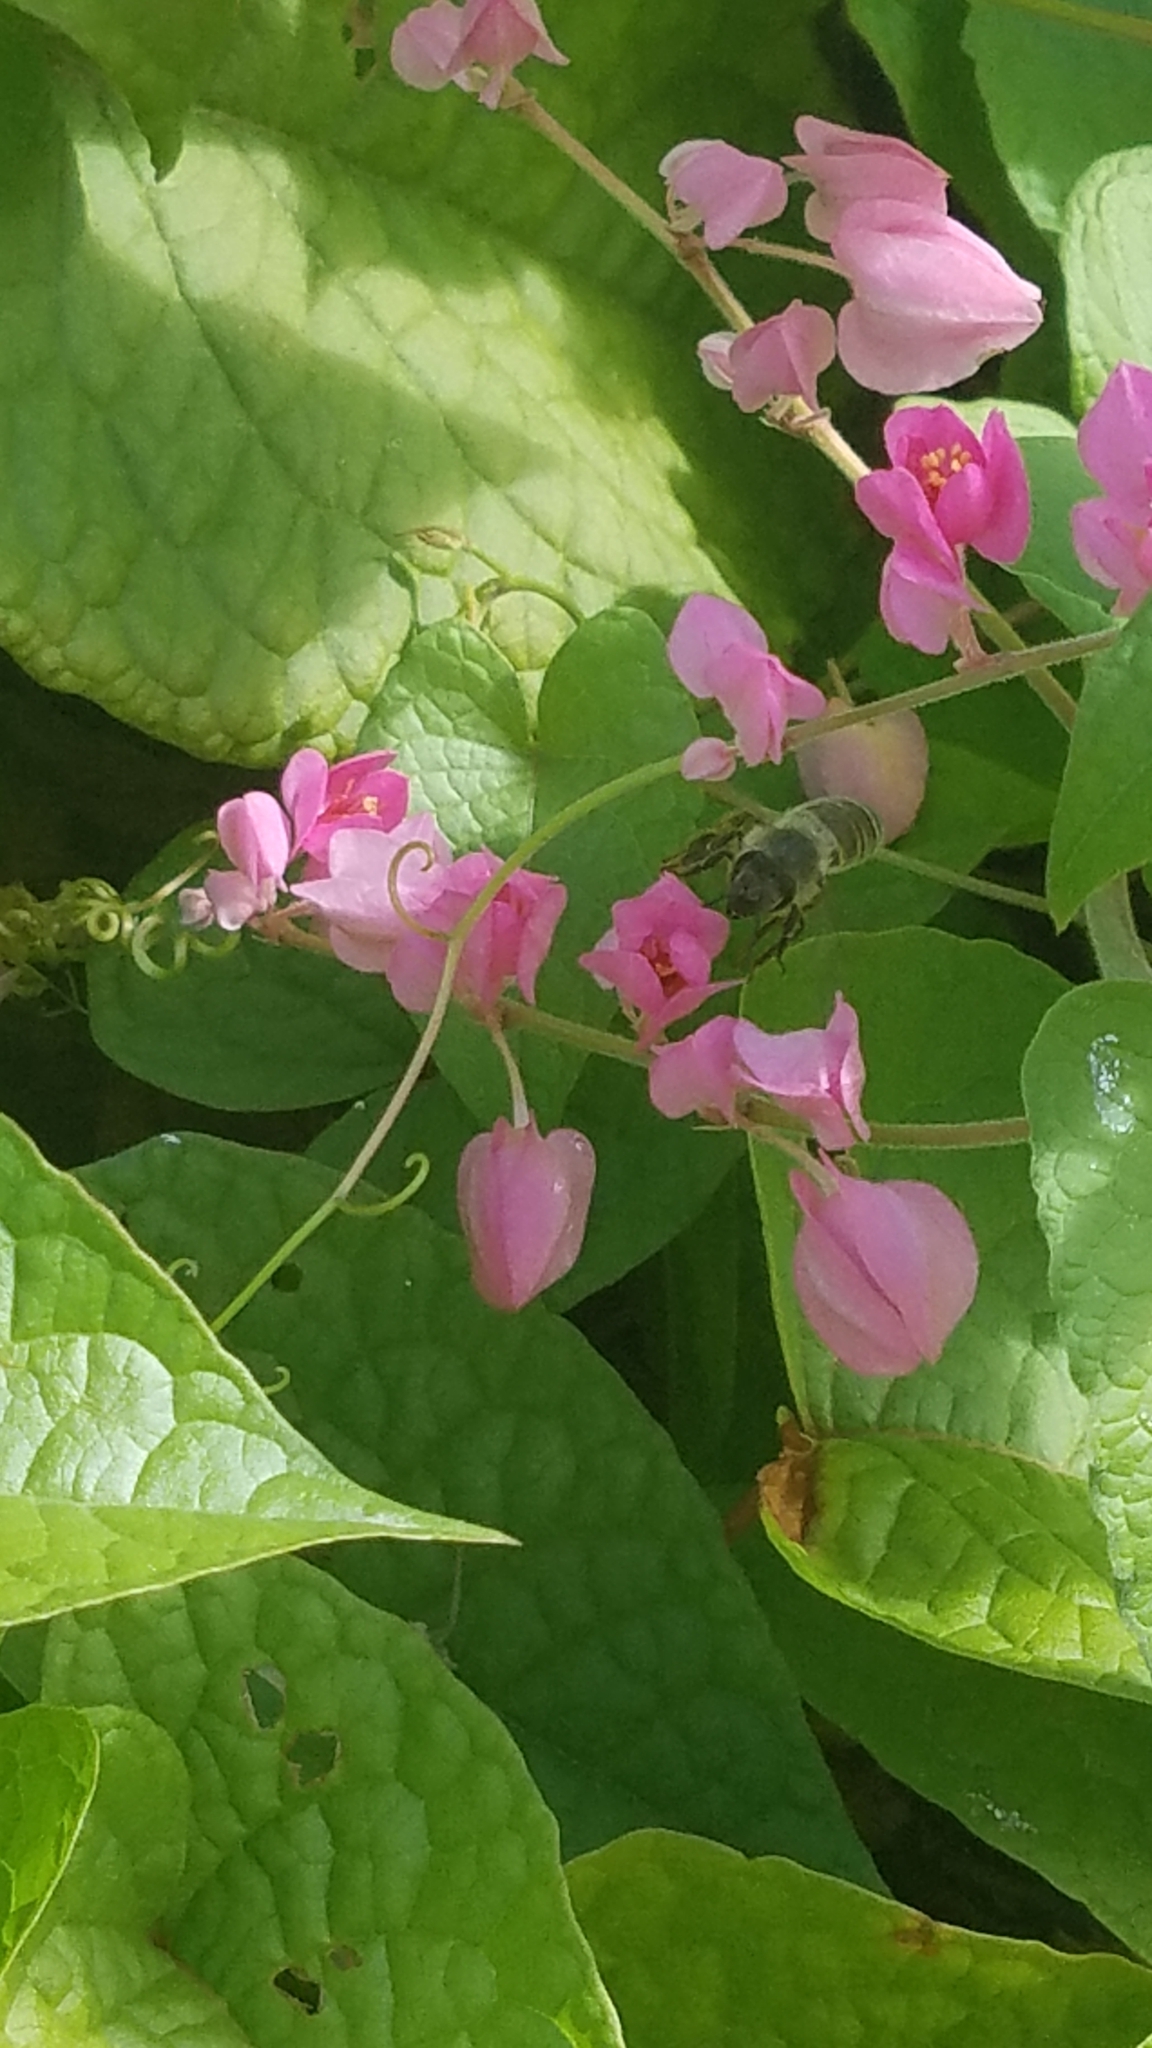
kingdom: Animalia
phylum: Arthropoda
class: Insecta
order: Hymenoptera
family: Apidae
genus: Apis
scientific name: Apis mellifera
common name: Honey bee
